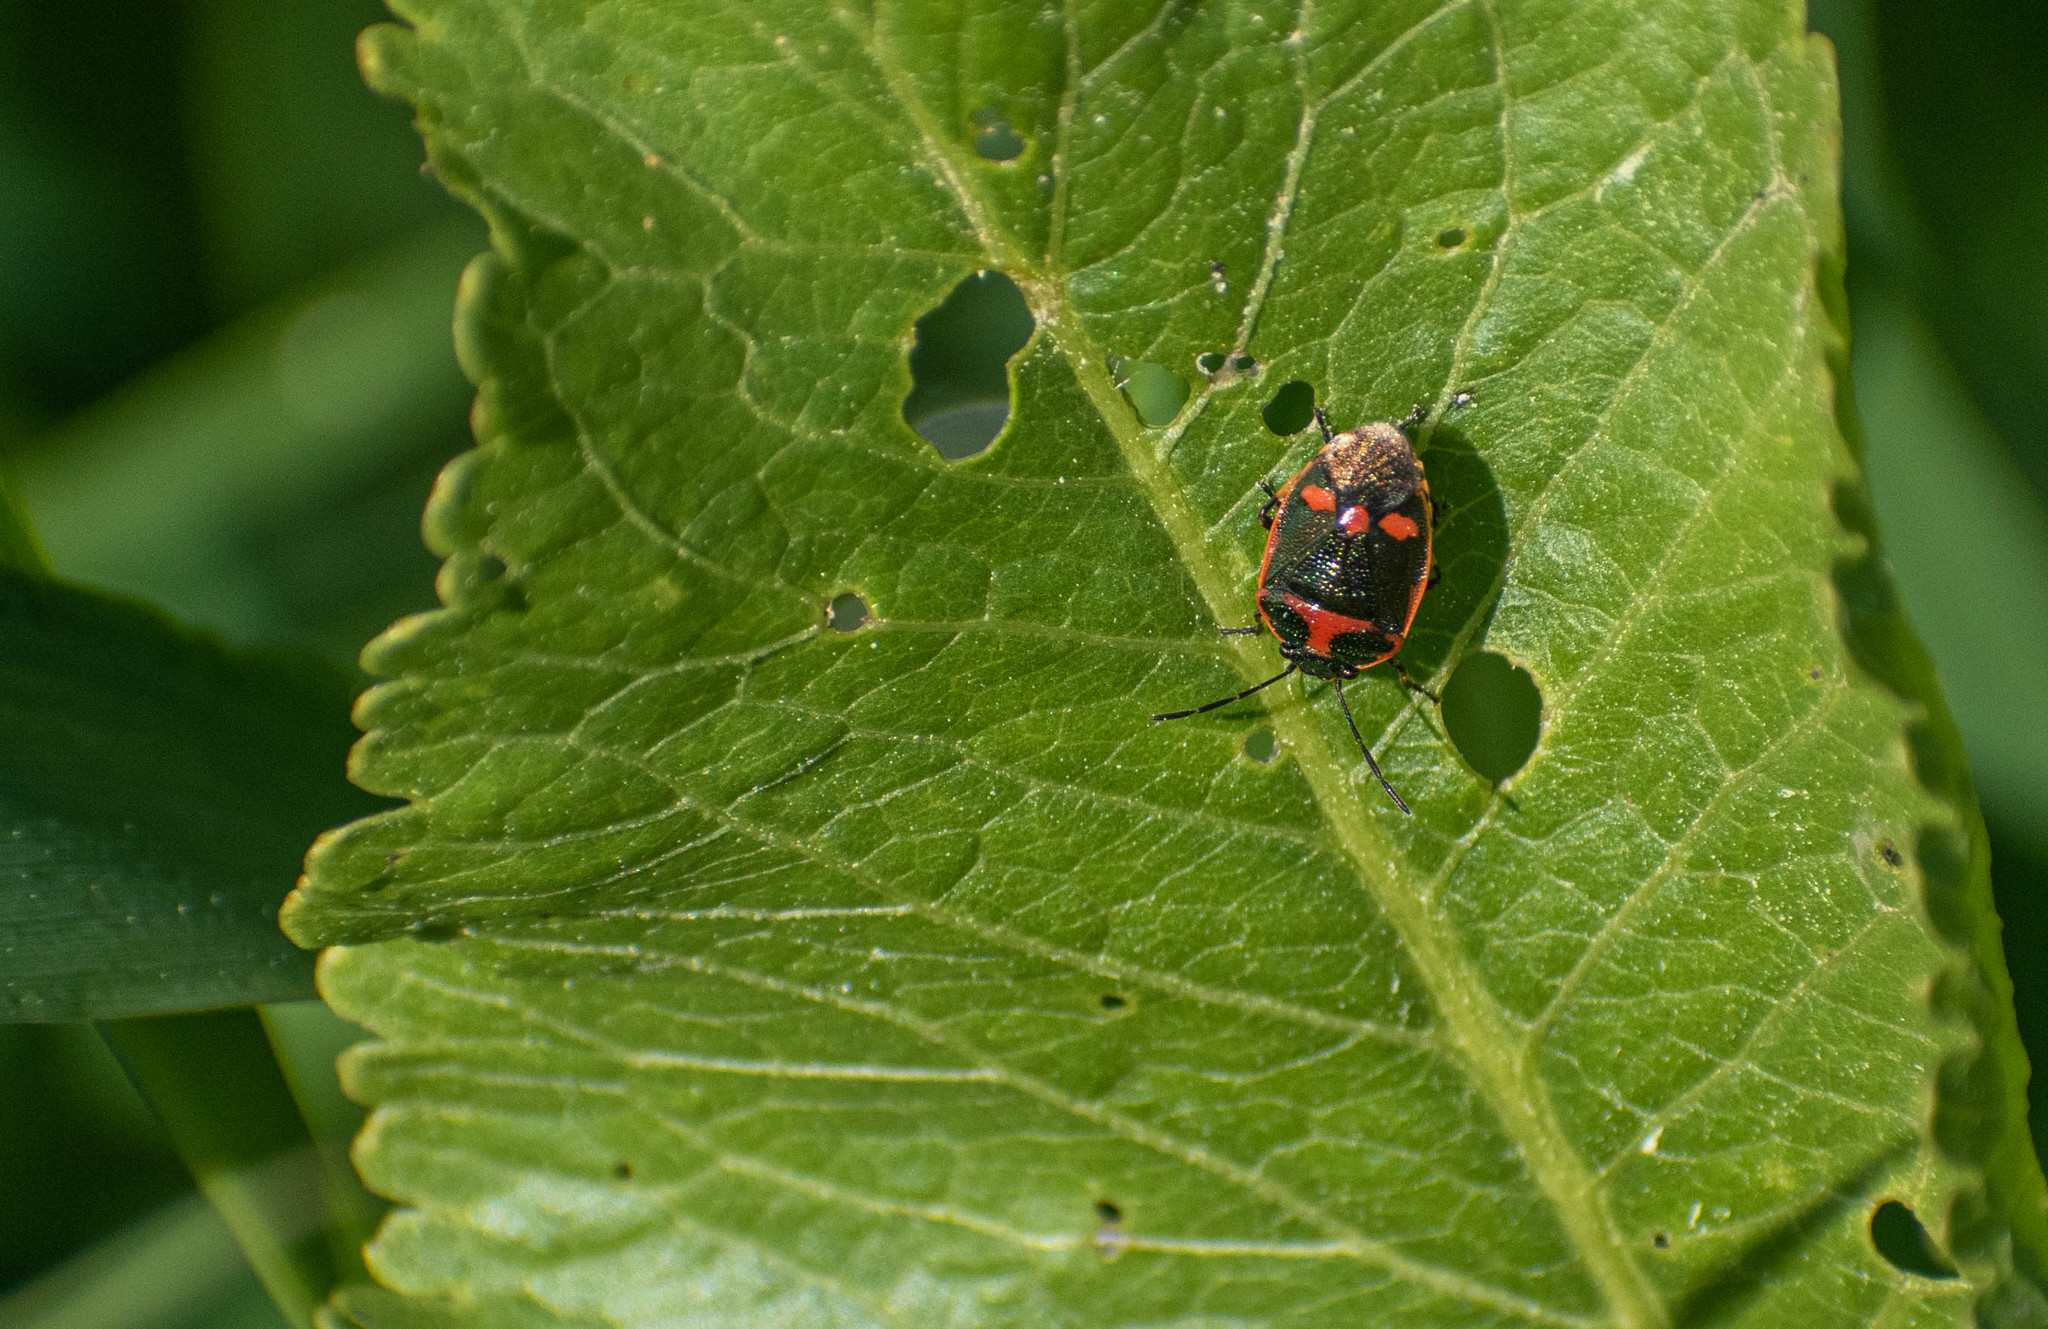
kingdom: Animalia
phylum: Arthropoda
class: Insecta
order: Hemiptera
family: Pentatomidae
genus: Eurydema
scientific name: Eurydema oleracea
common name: Cabbage bug
